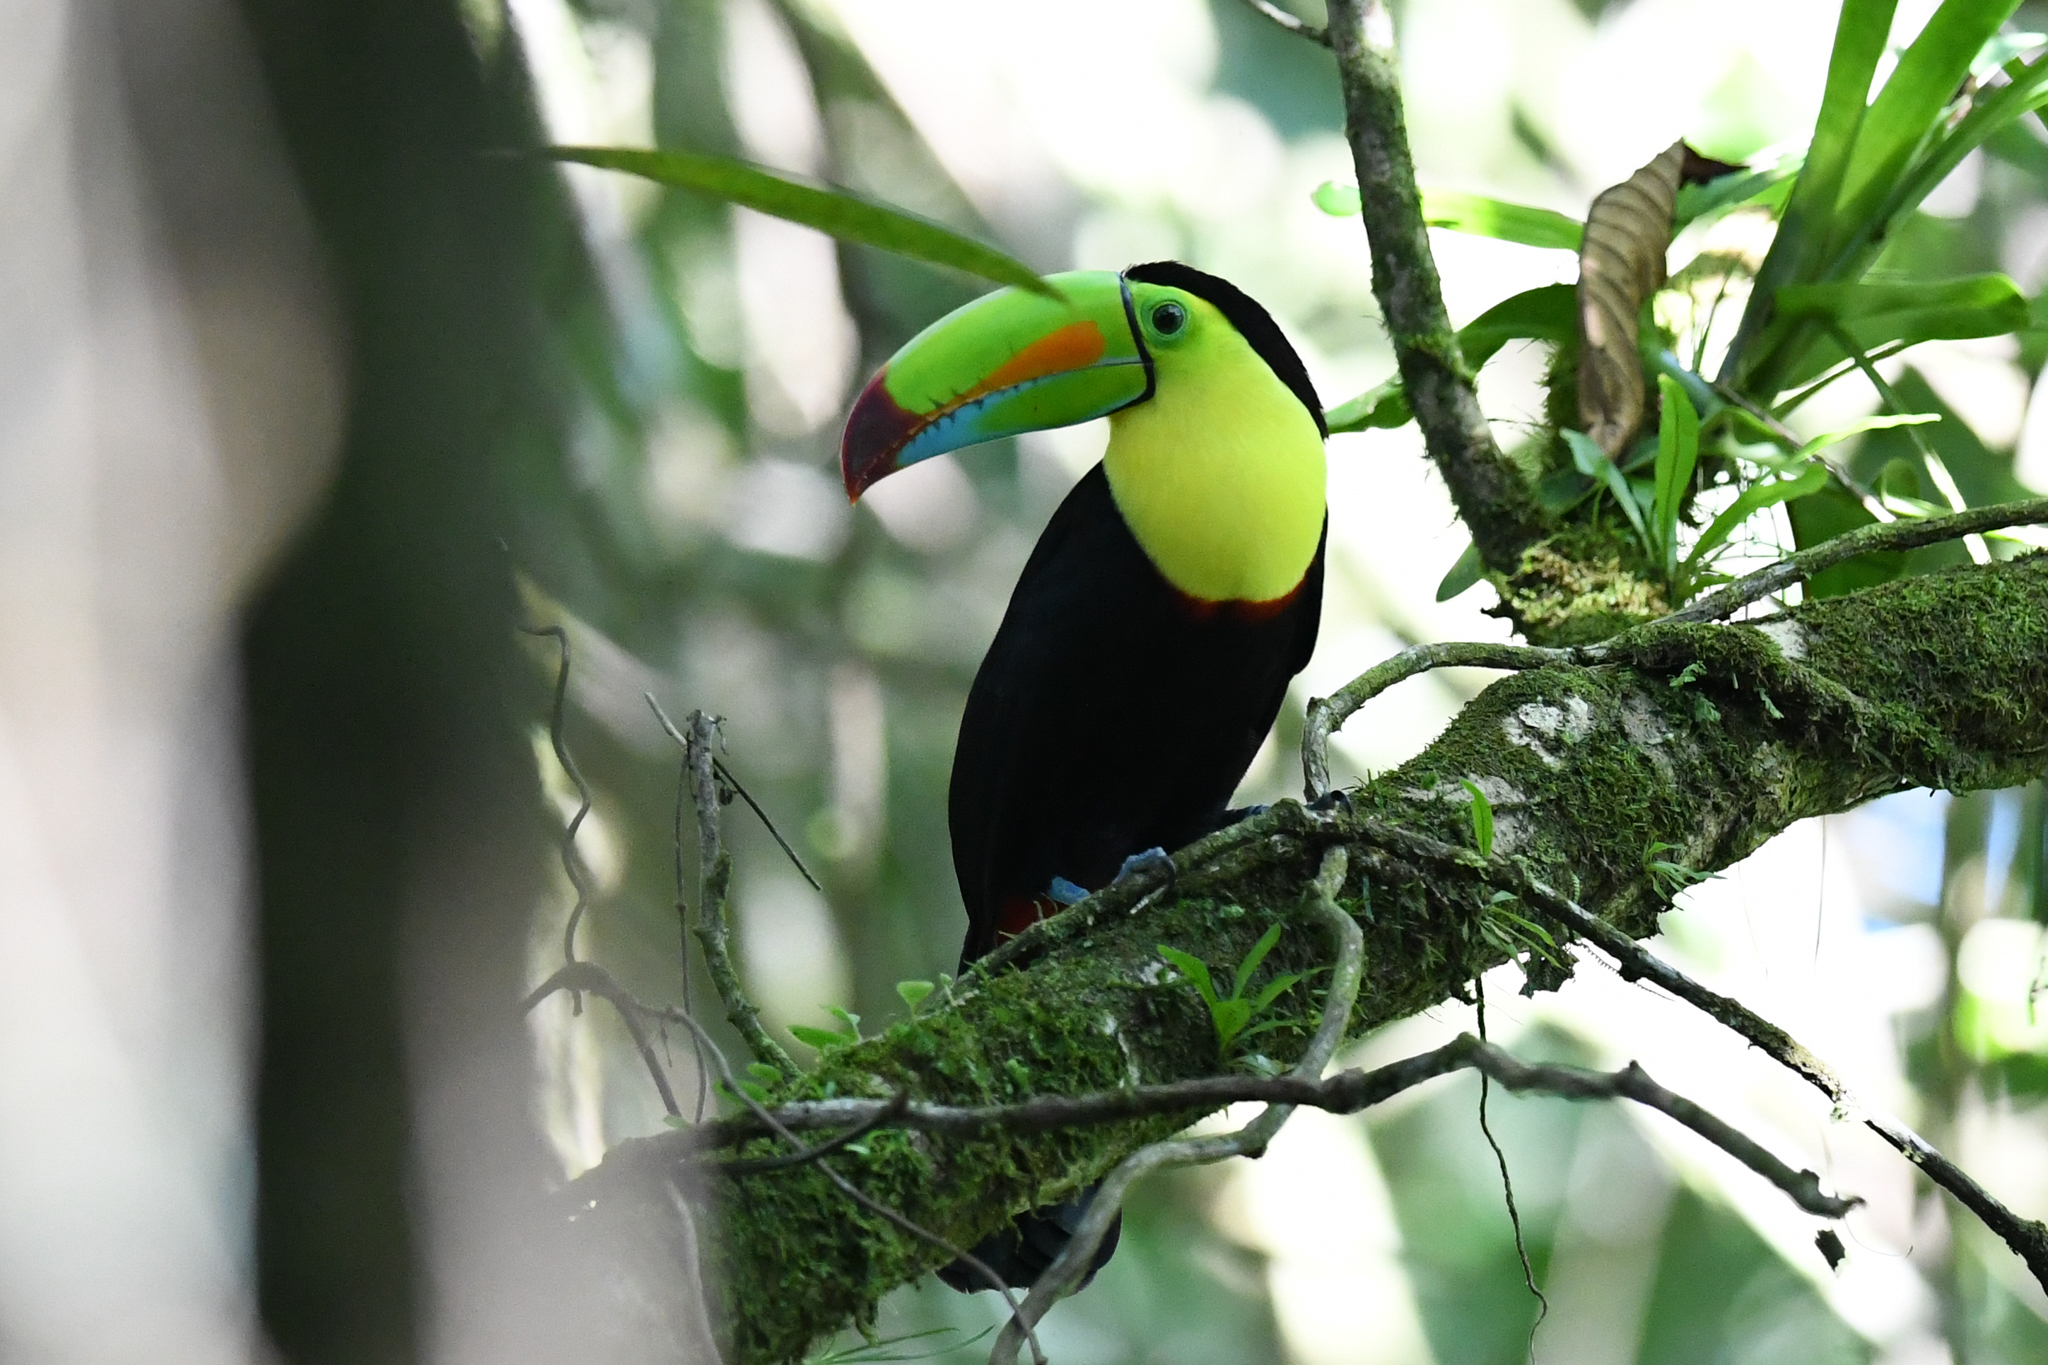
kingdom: Animalia
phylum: Chordata
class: Aves
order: Piciformes
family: Ramphastidae
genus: Ramphastos
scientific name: Ramphastos sulfuratus
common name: Keel-billed toucan
